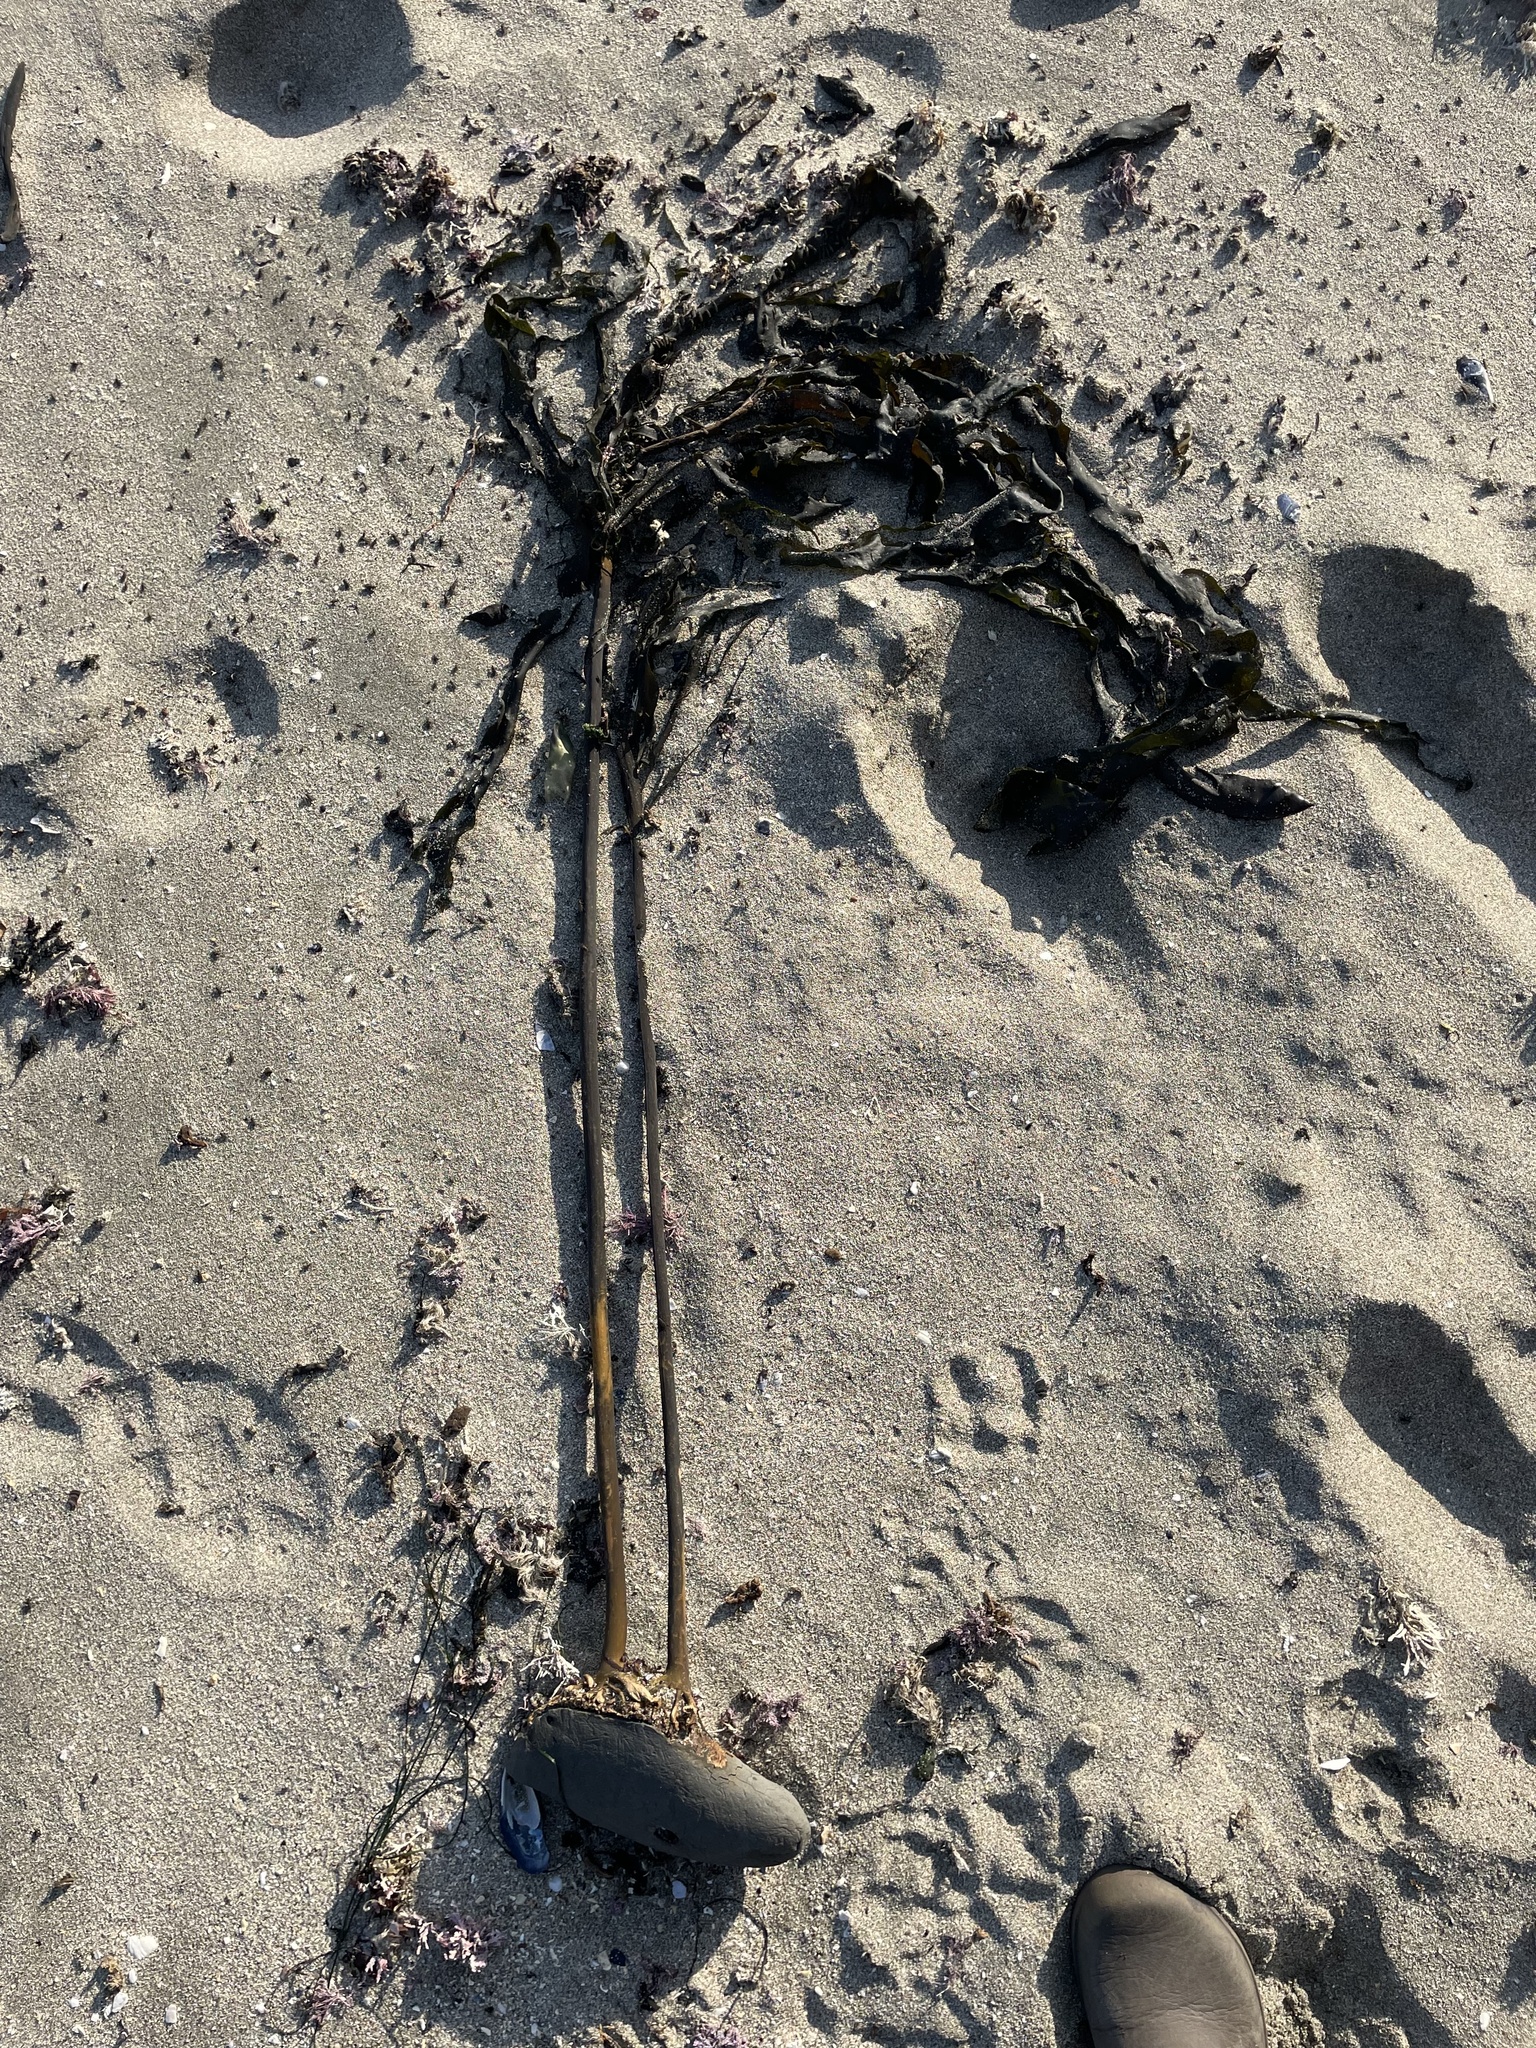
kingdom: Chromista
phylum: Ochrophyta
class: Phaeophyceae
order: Laminariales
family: Alariaceae
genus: Pterygophora
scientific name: Pterygophora californica
